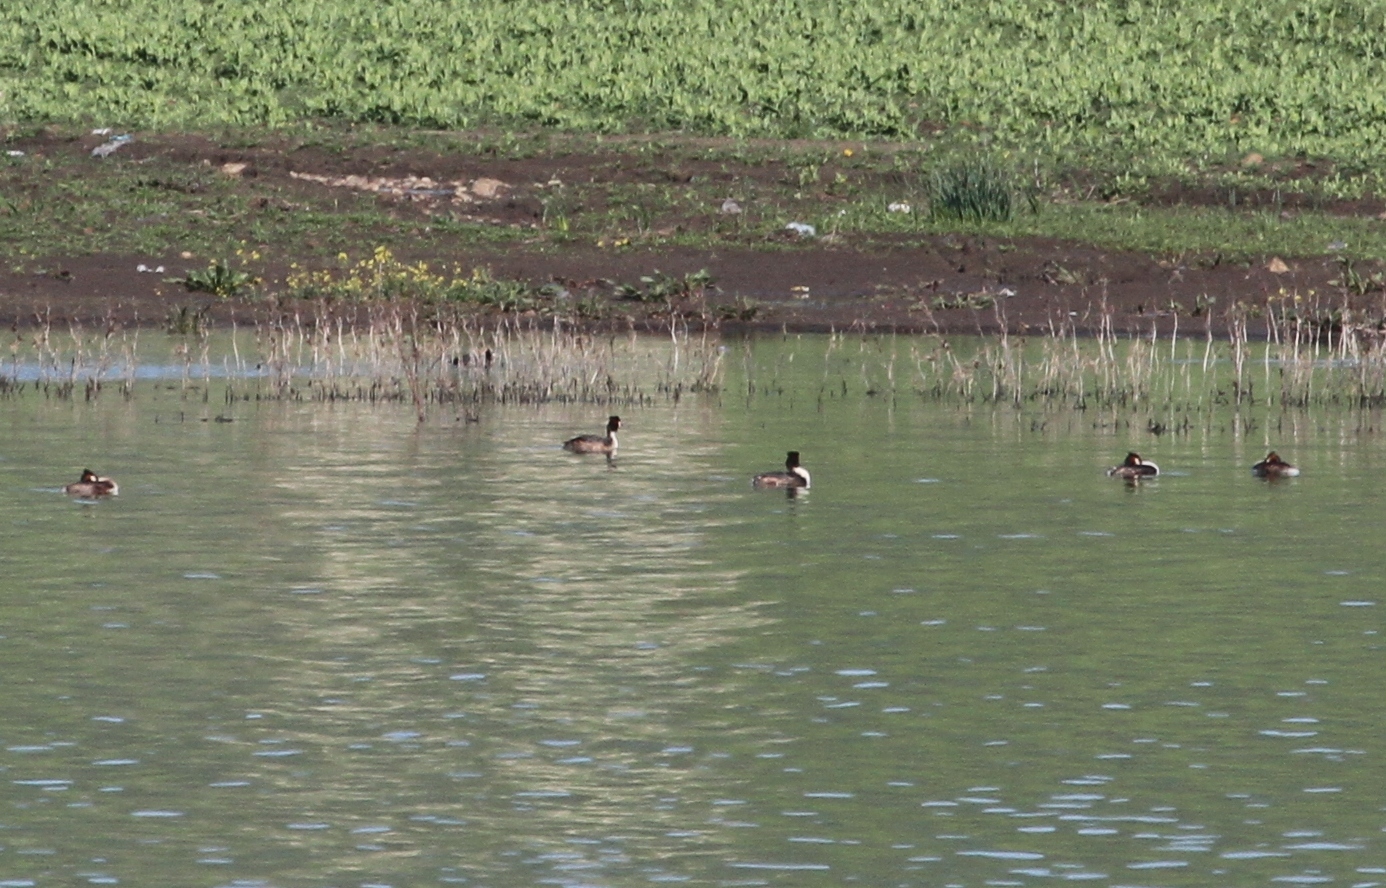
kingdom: Animalia
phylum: Chordata
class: Aves
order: Podicipediformes
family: Podicipedidae
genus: Podiceps
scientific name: Podiceps cristatus
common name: Great crested grebe
